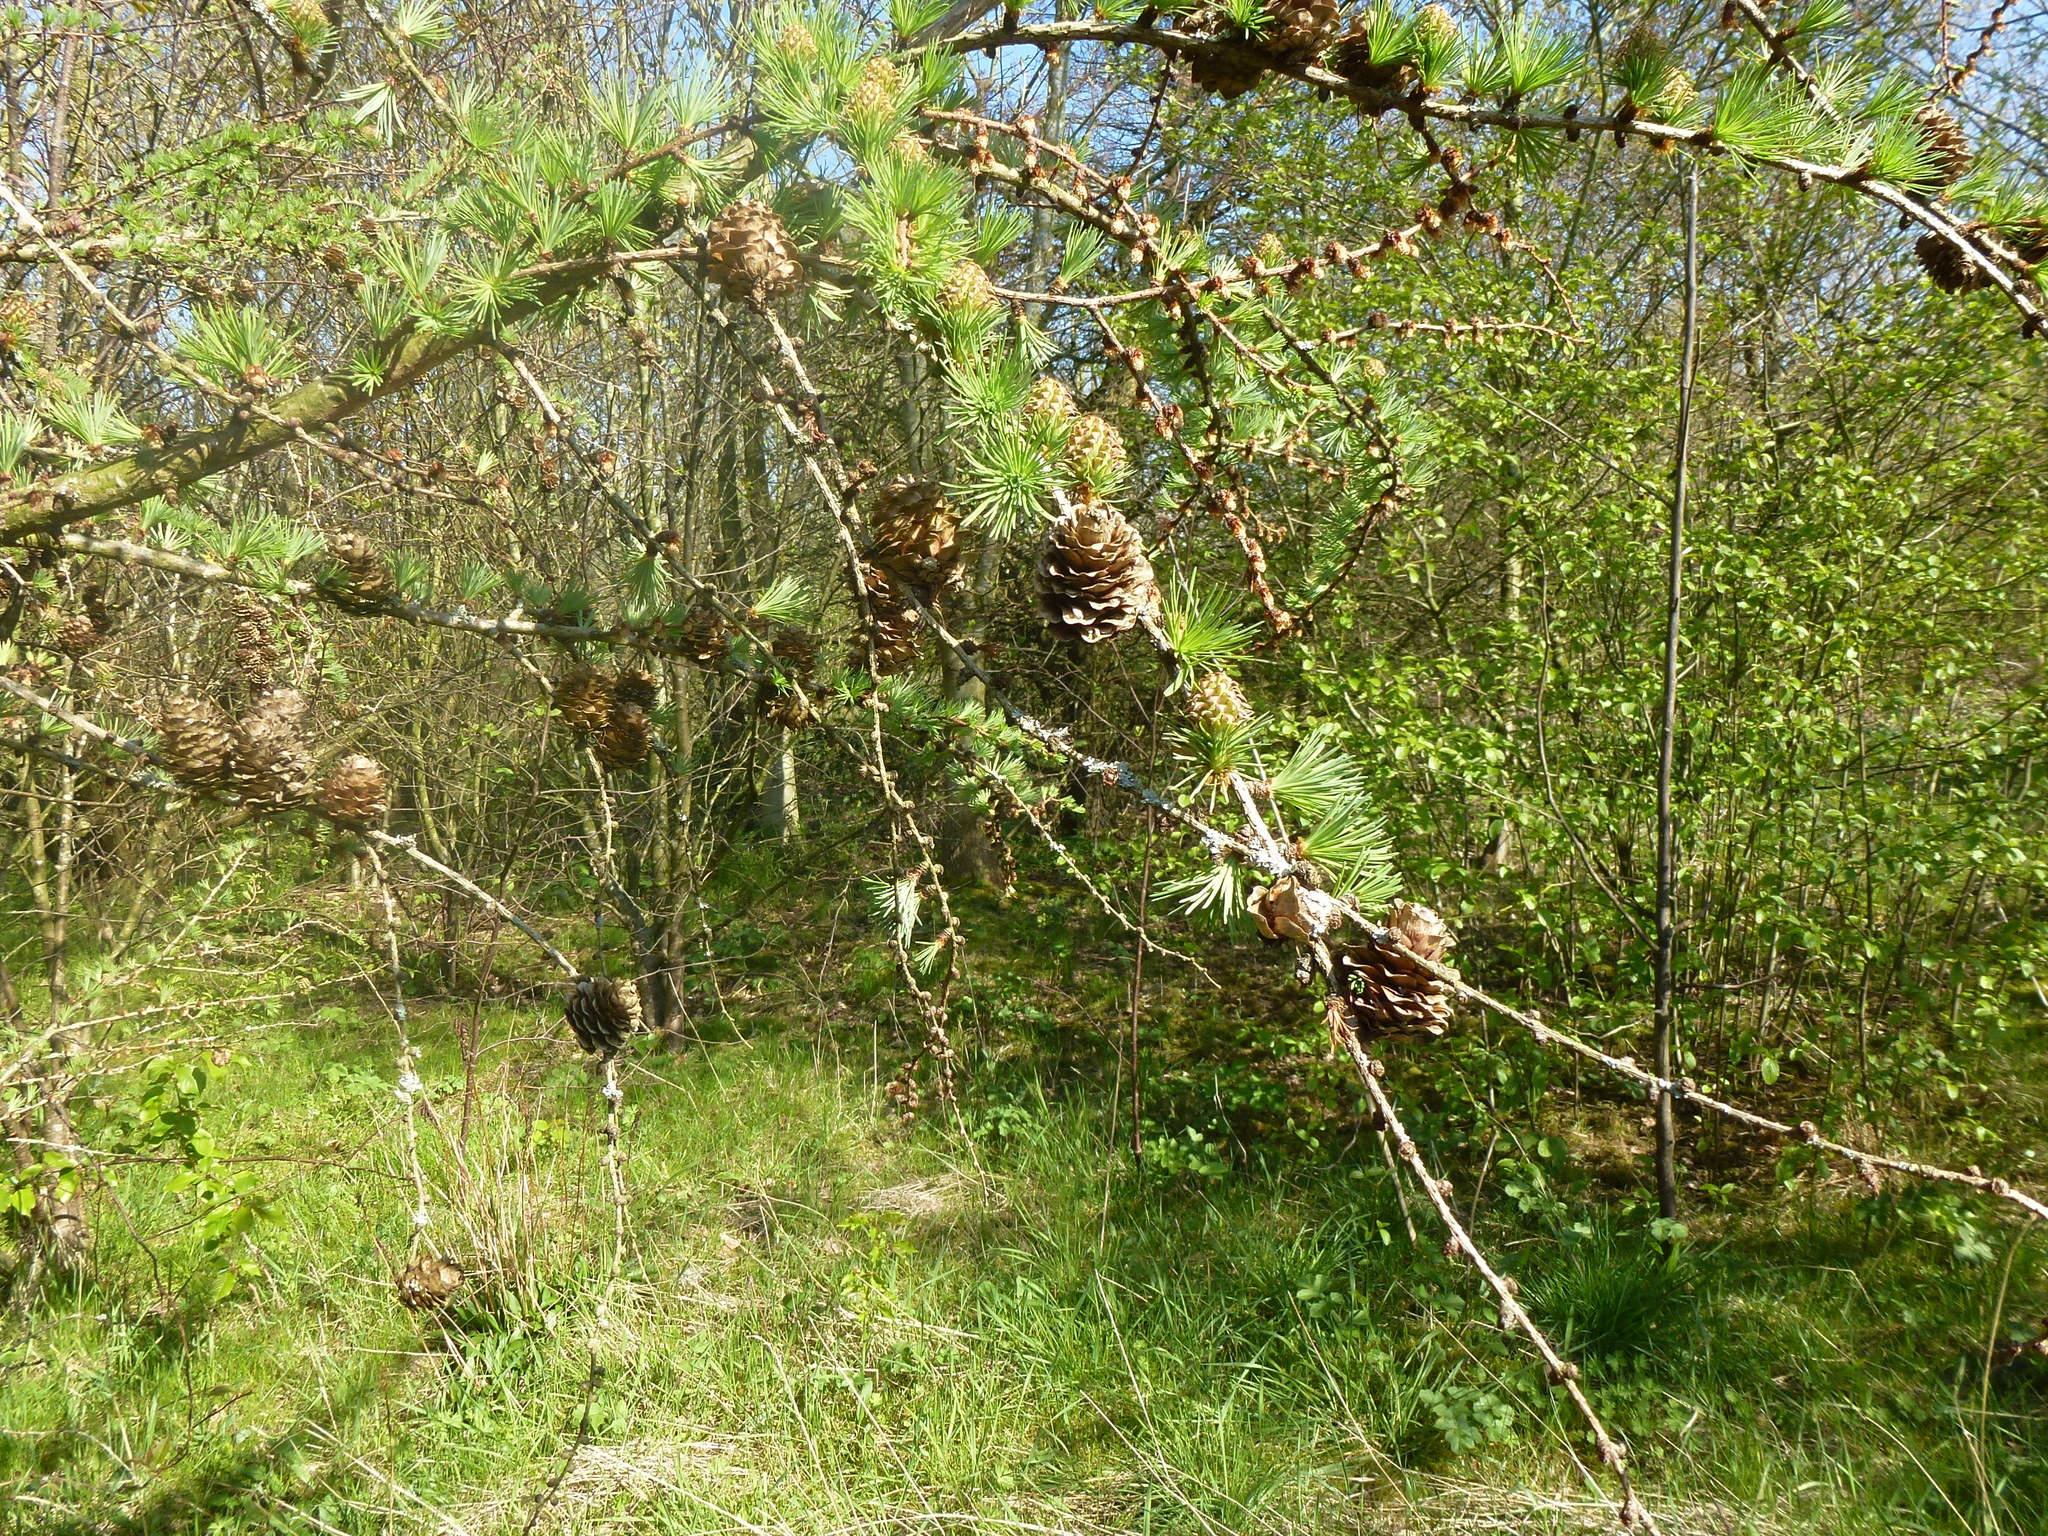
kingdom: Plantae
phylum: Tracheophyta
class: Pinopsida
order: Pinales
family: Pinaceae
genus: Larix
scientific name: Larix kaempferi
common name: Japanese larch
